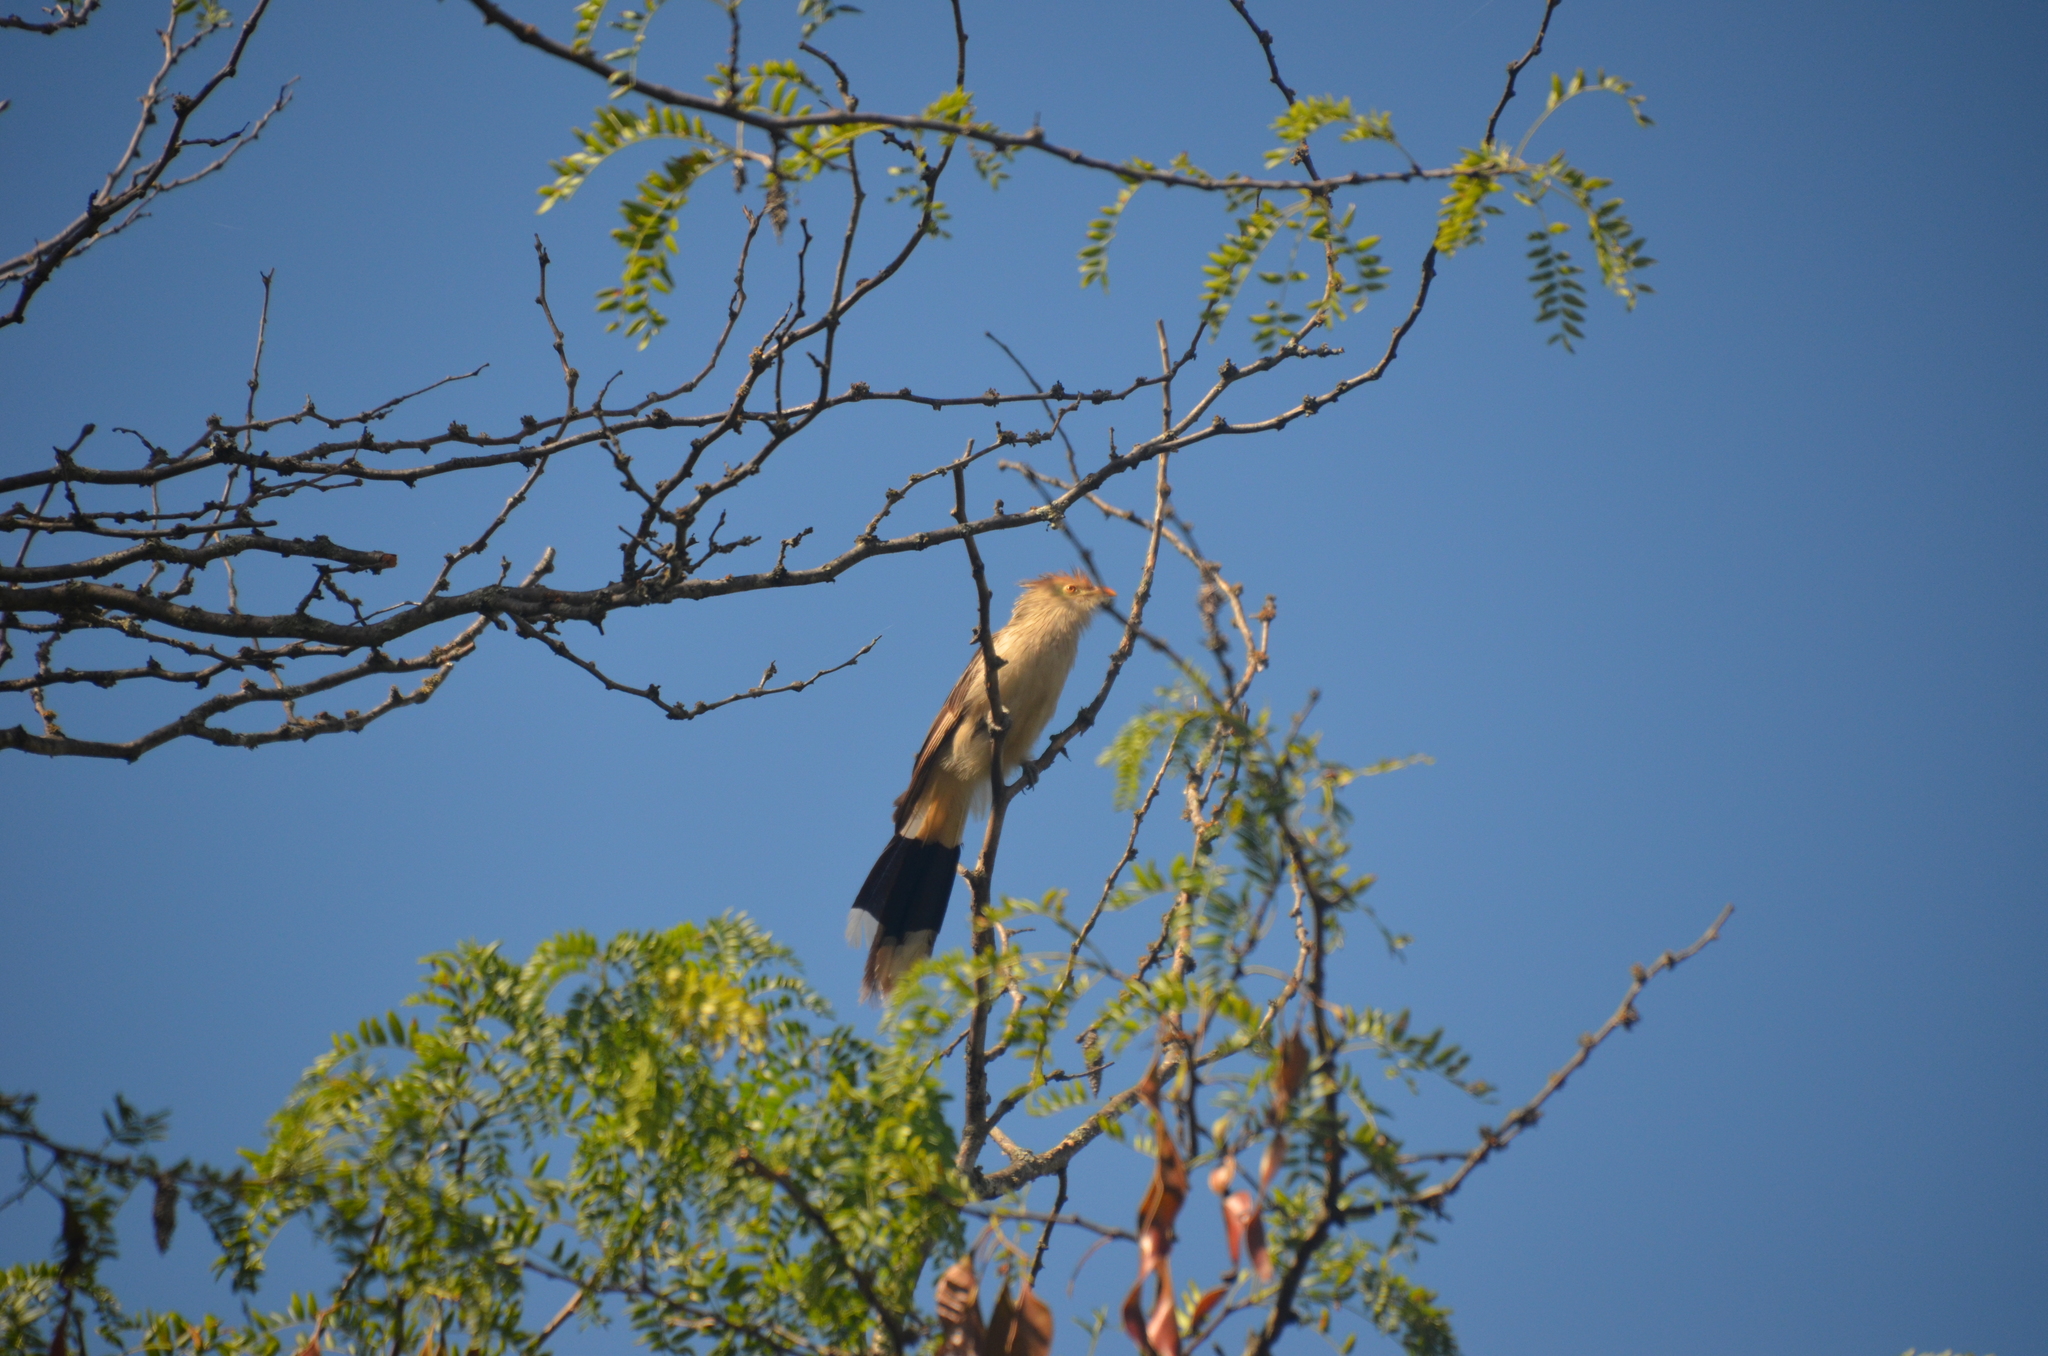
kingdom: Animalia
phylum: Chordata
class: Aves
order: Cuculiformes
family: Cuculidae
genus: Guira
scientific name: Guira guira
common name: Guira cuckoo
